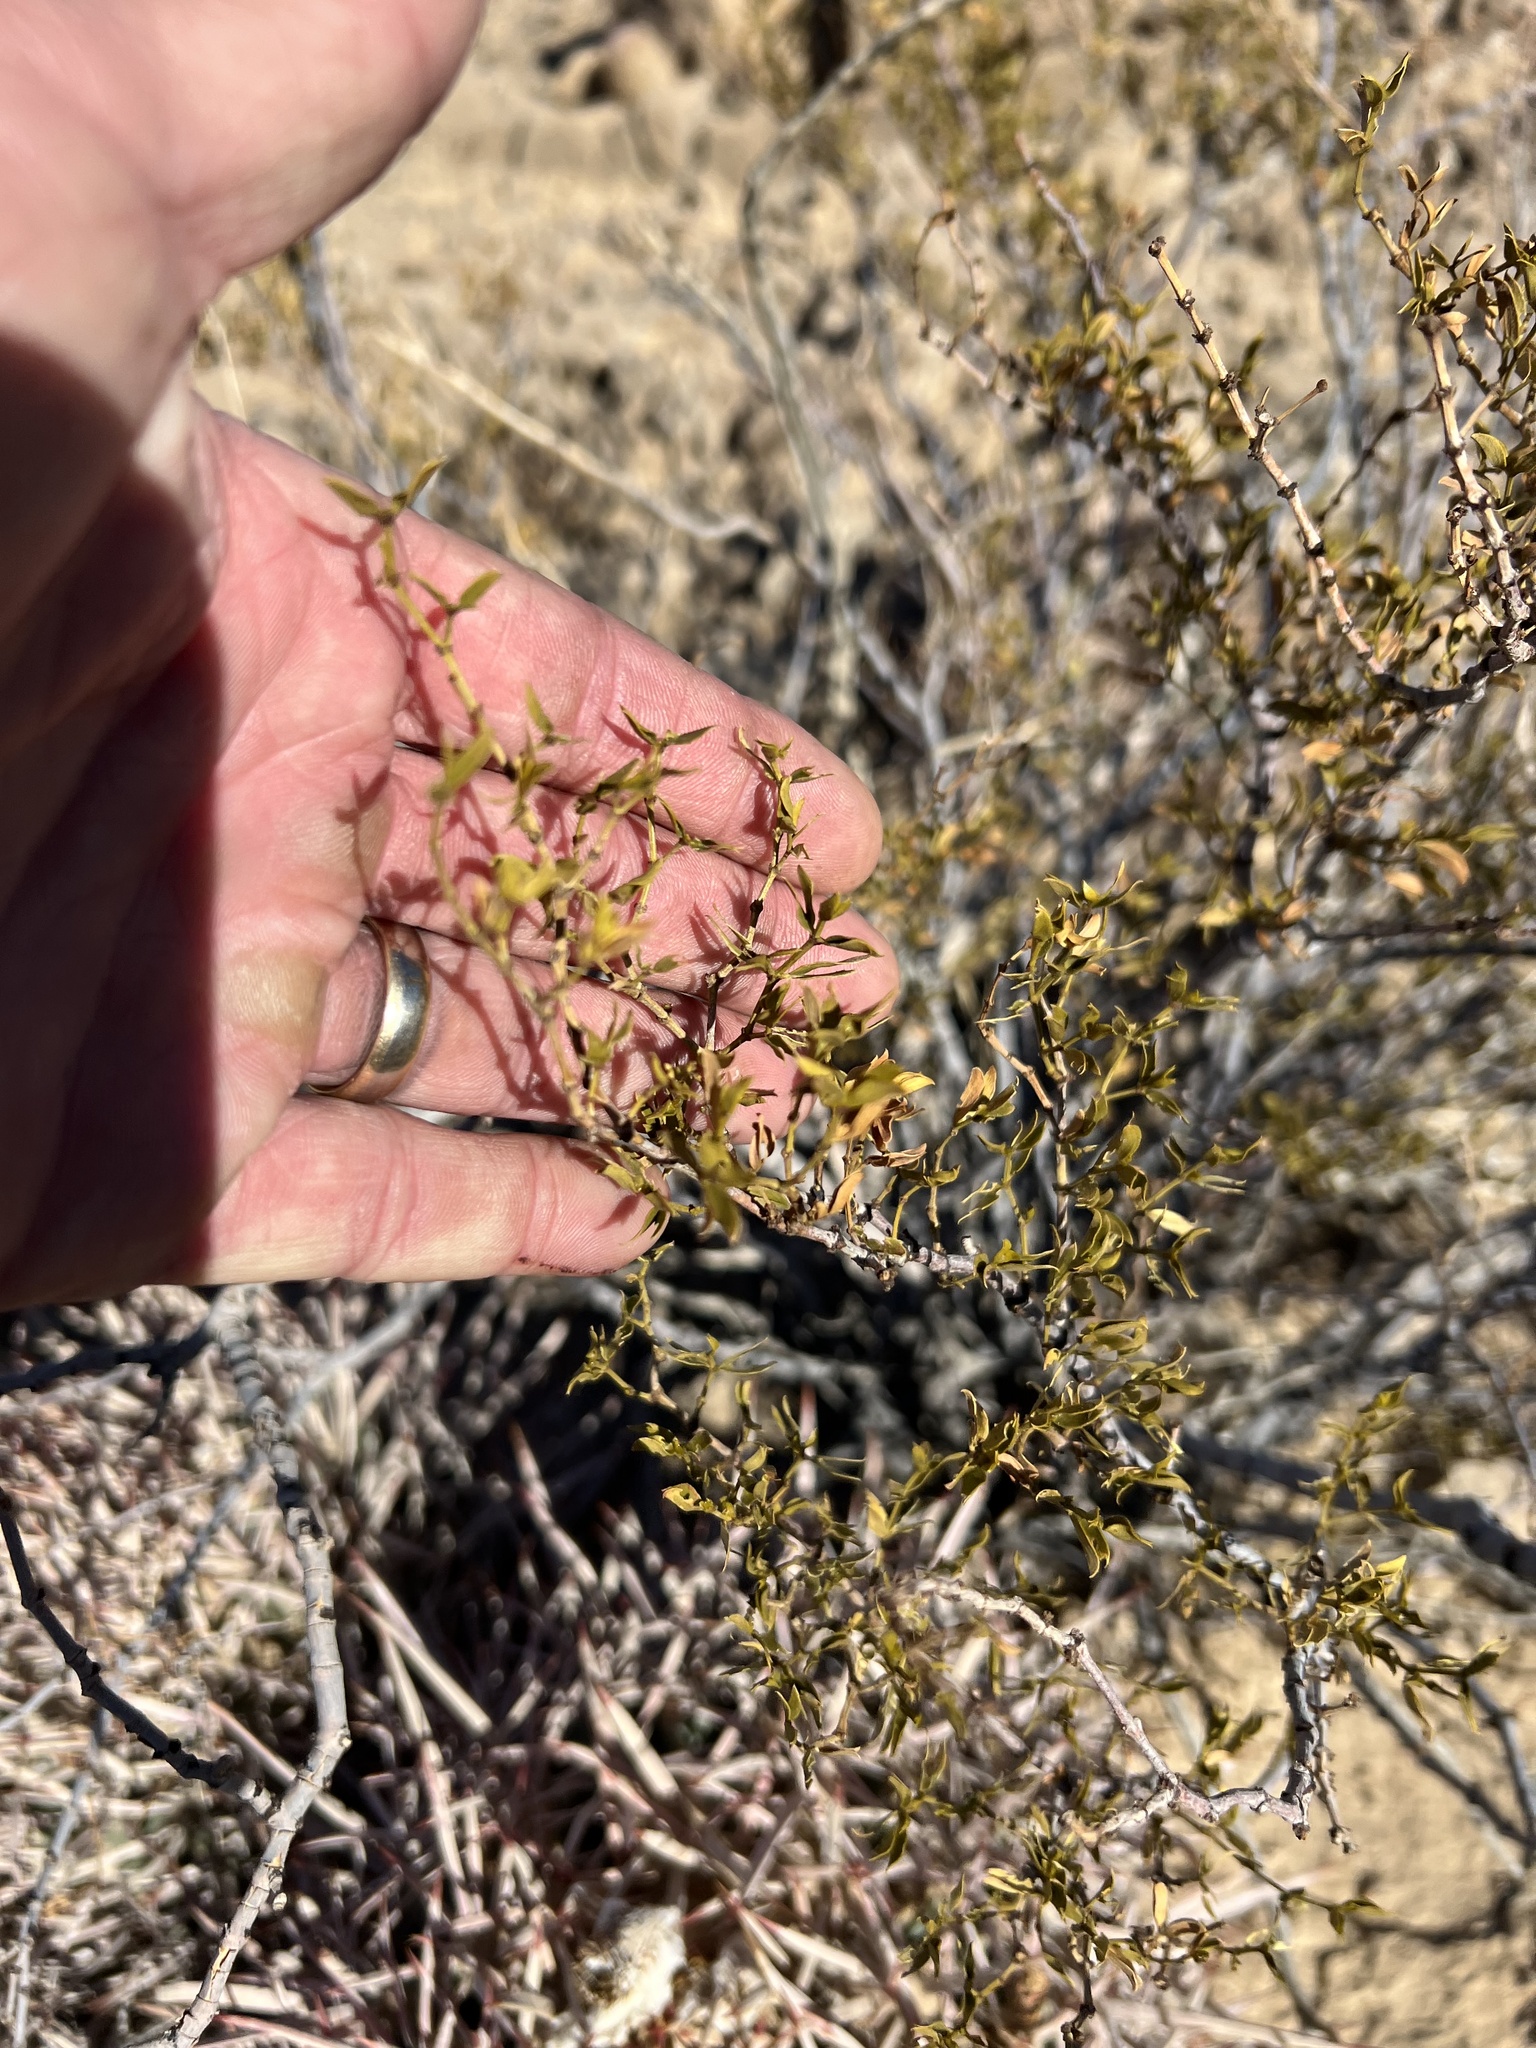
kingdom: Plantae
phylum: Tracheophyta
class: Magnoliopsida
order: Zygophyllales
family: Zygophyllaceae
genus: Larrea
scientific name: Larrea tridentata
